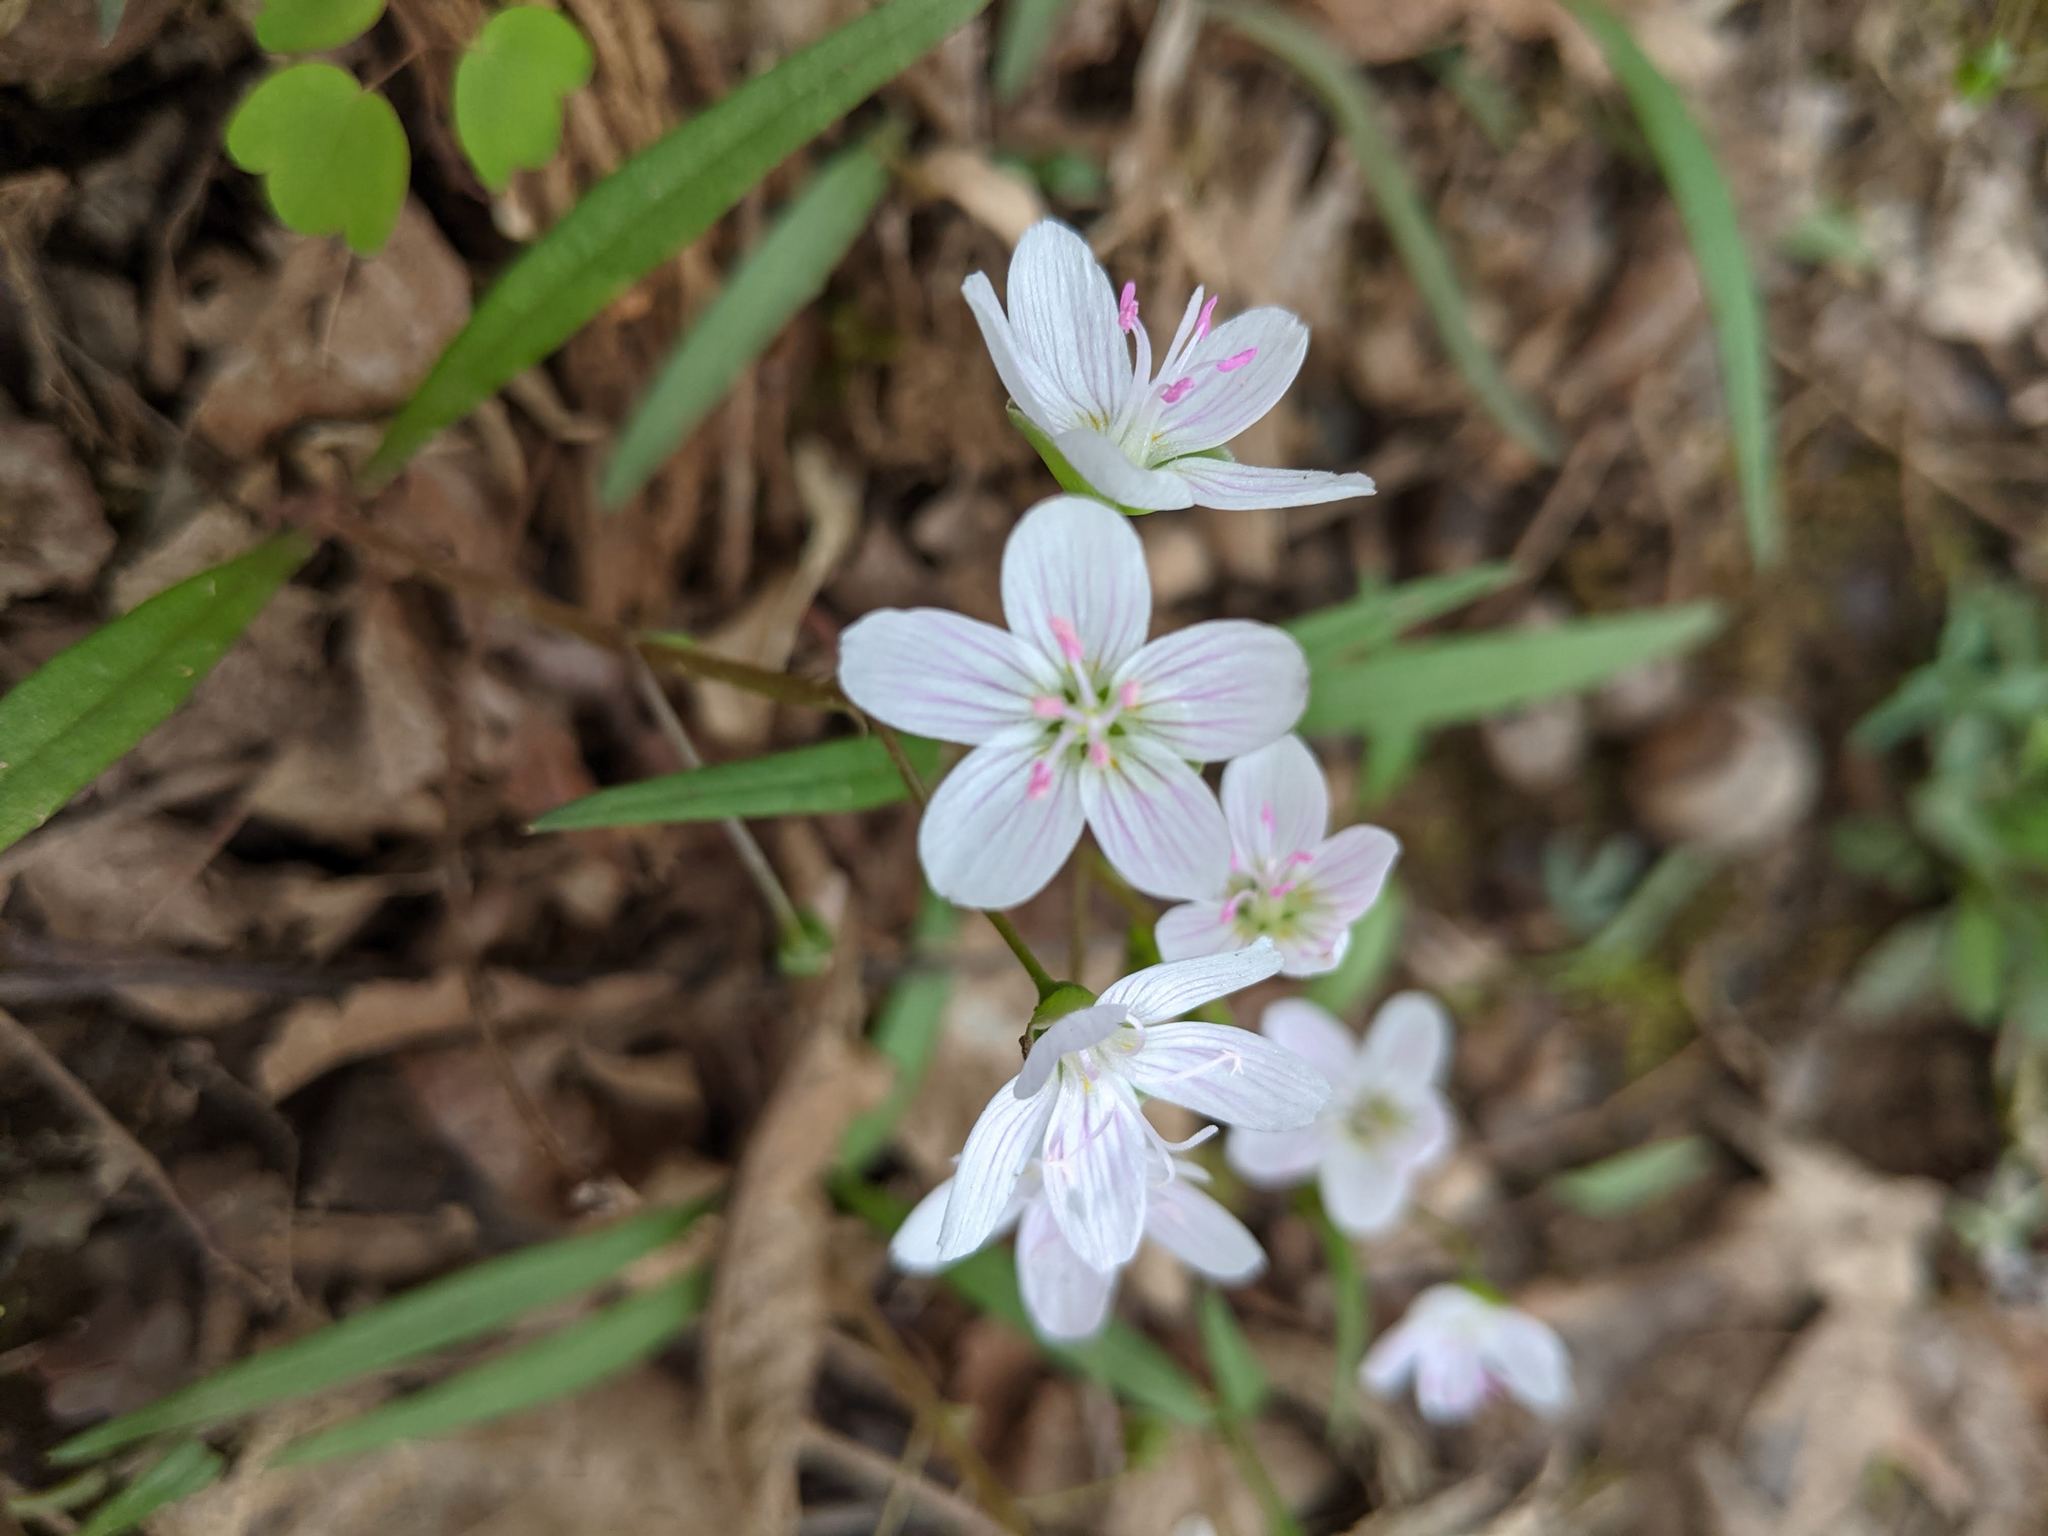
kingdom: Plantae
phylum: Tracheophyta
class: Magnoliopsida
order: Caryophyllales
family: Montiaceae
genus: Claytonia
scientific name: Claytonia virginica
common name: Virginia springbeauty
